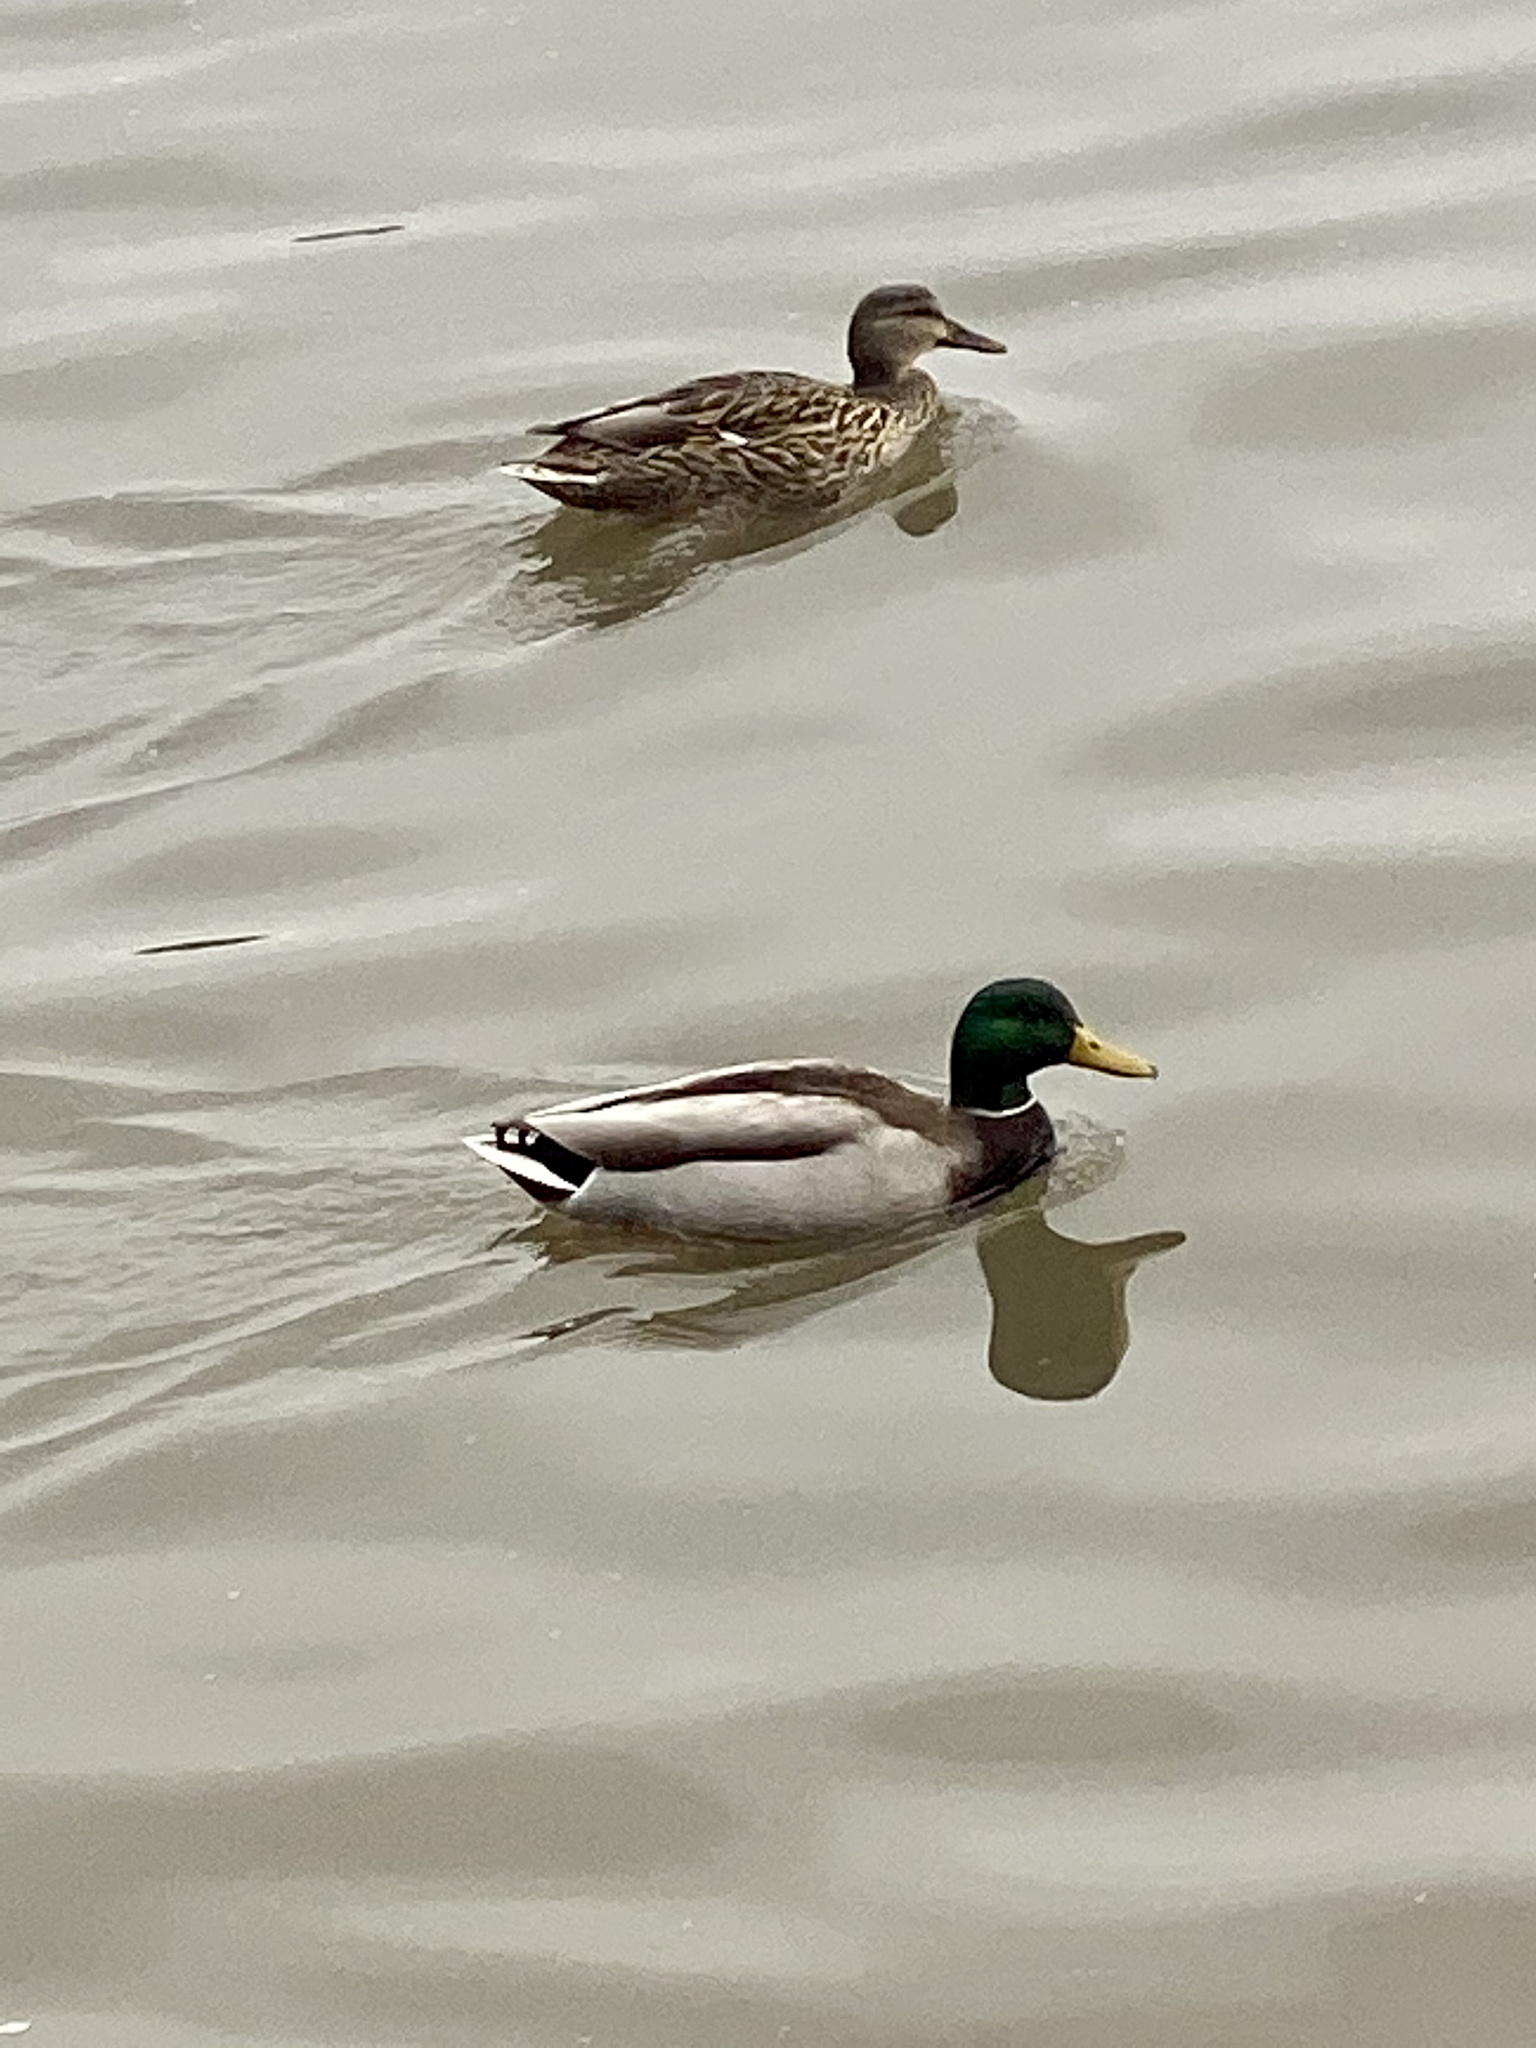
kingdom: Animalia
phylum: Chordata
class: Aves
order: Anseriformes
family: Anatidae
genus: Anas
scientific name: Anas platyrhynchos
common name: Mallard
